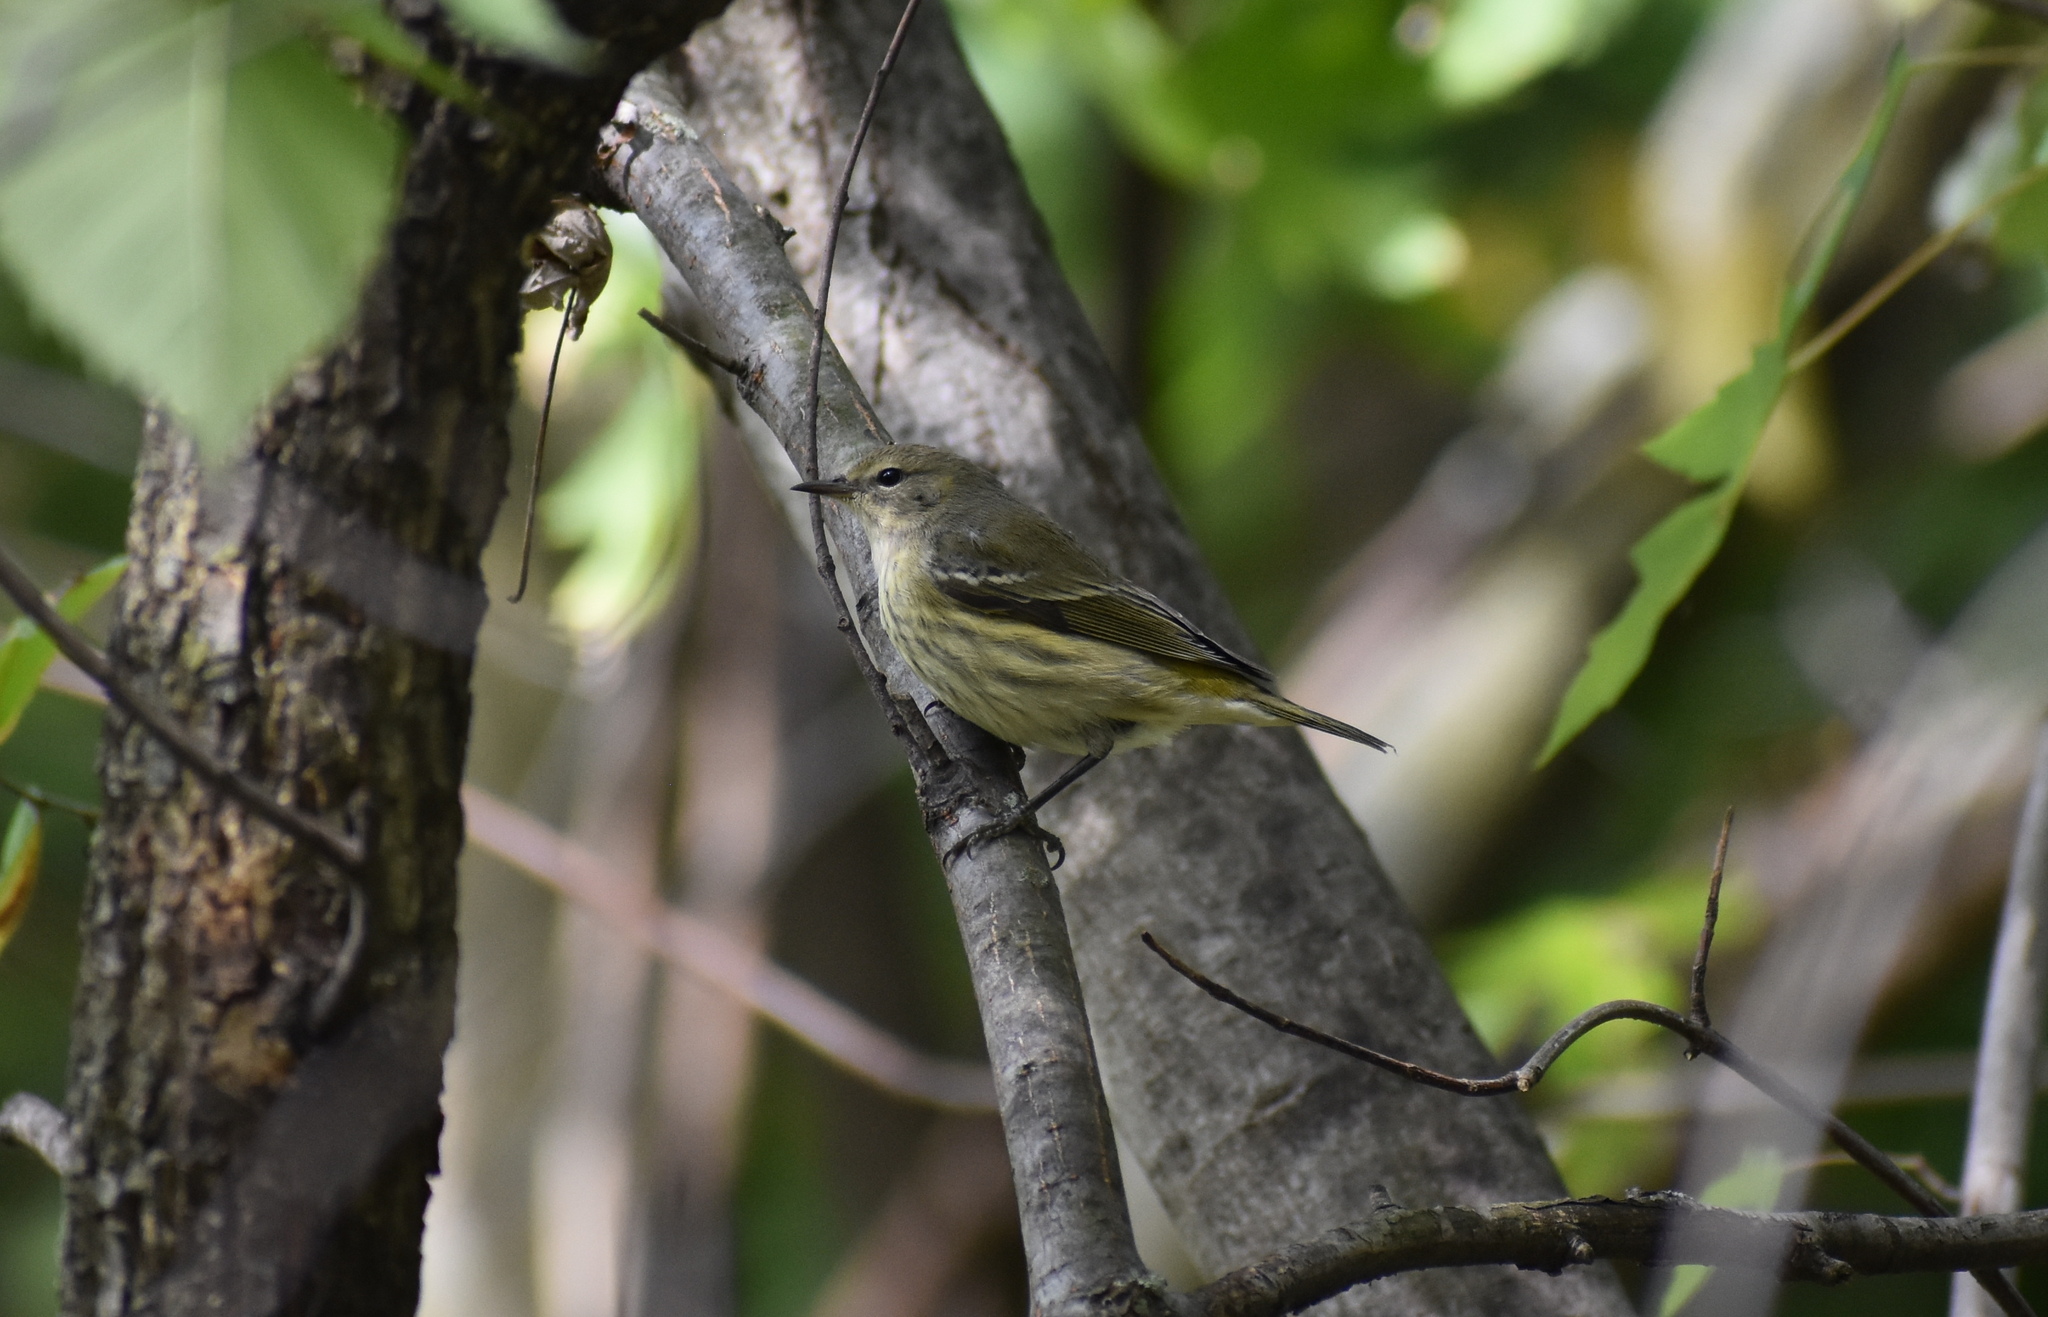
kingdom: Animalia
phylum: Chordata
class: Aves
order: Passeriformes
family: Parulidae
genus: Setophaga
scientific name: Setophaga tigrina
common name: Cape may warbler
